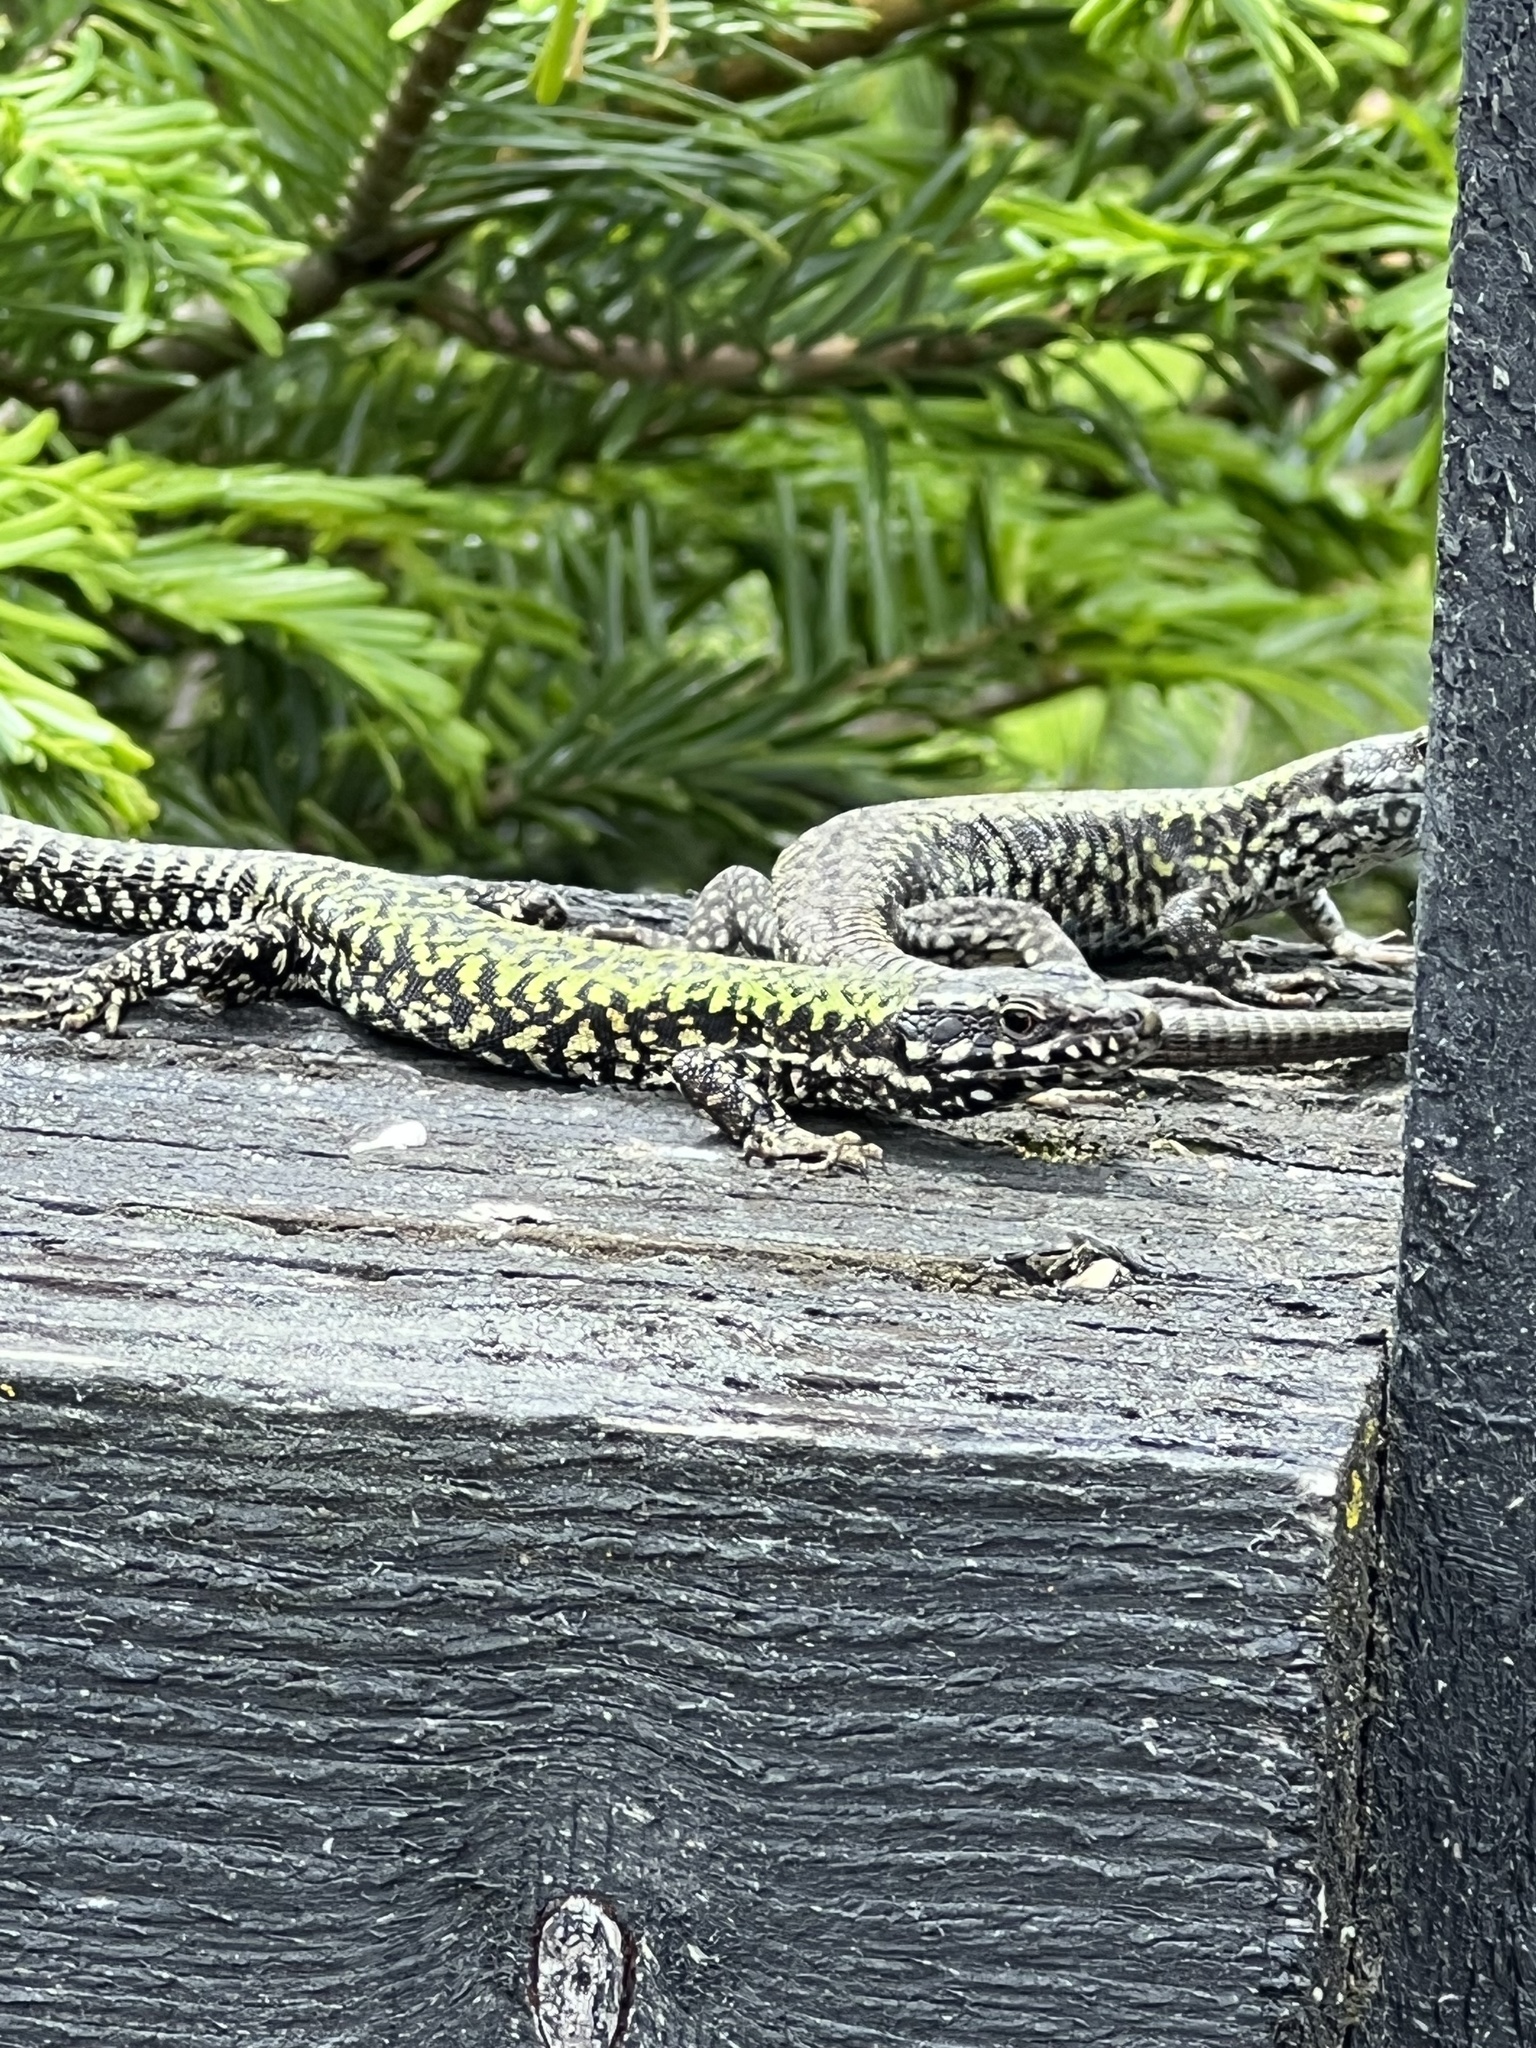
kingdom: Animalia
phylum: Chordata
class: Squamata
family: Lacertidae
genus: Podarcis
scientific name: Podarcis muralis
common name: Common wall lizard
